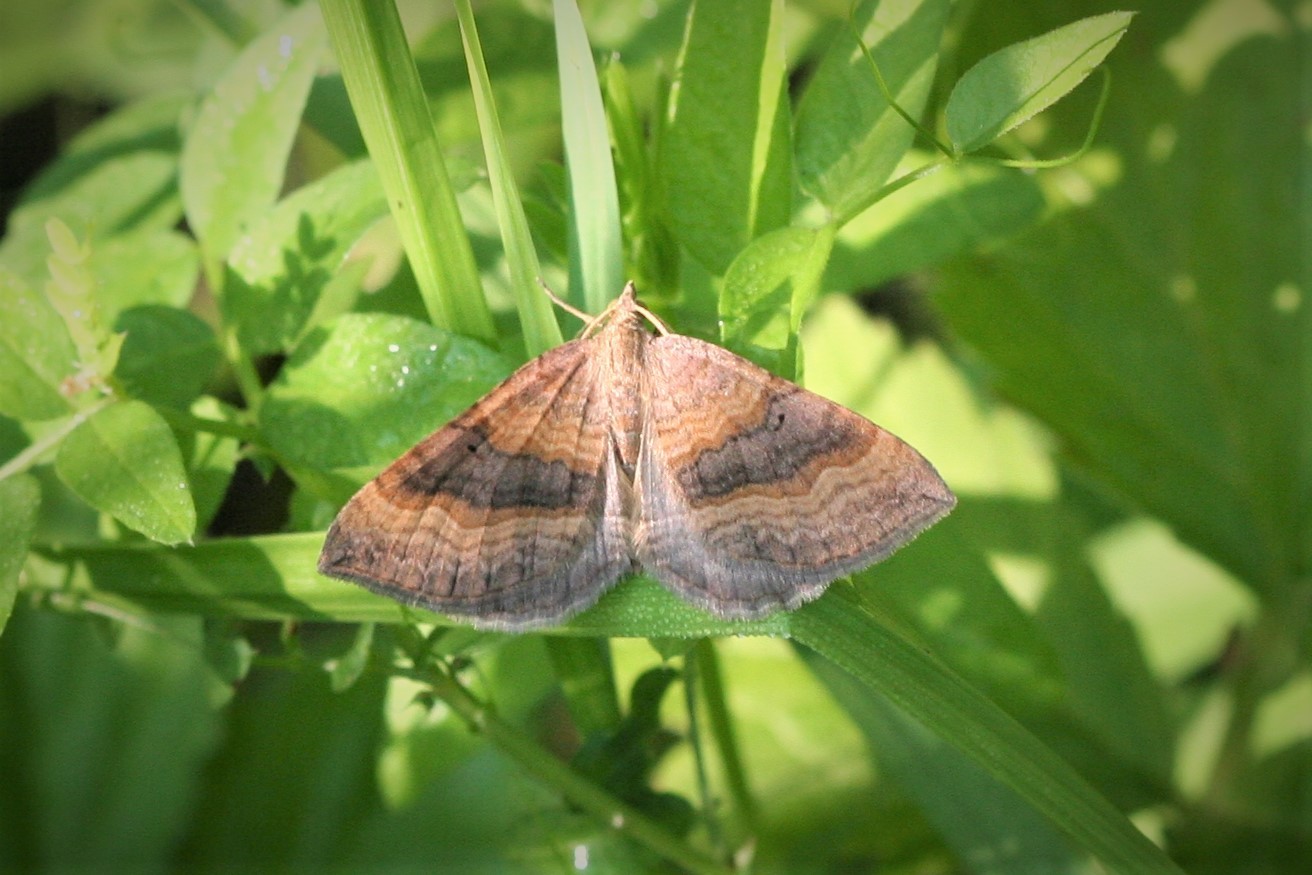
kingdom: Animalia
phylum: Arthropoda
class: Insecta
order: Lepidoptera
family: Geometridae
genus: Scotopteryx
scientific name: Scotopteryx chenopodiata
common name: Shaded broad-bar
